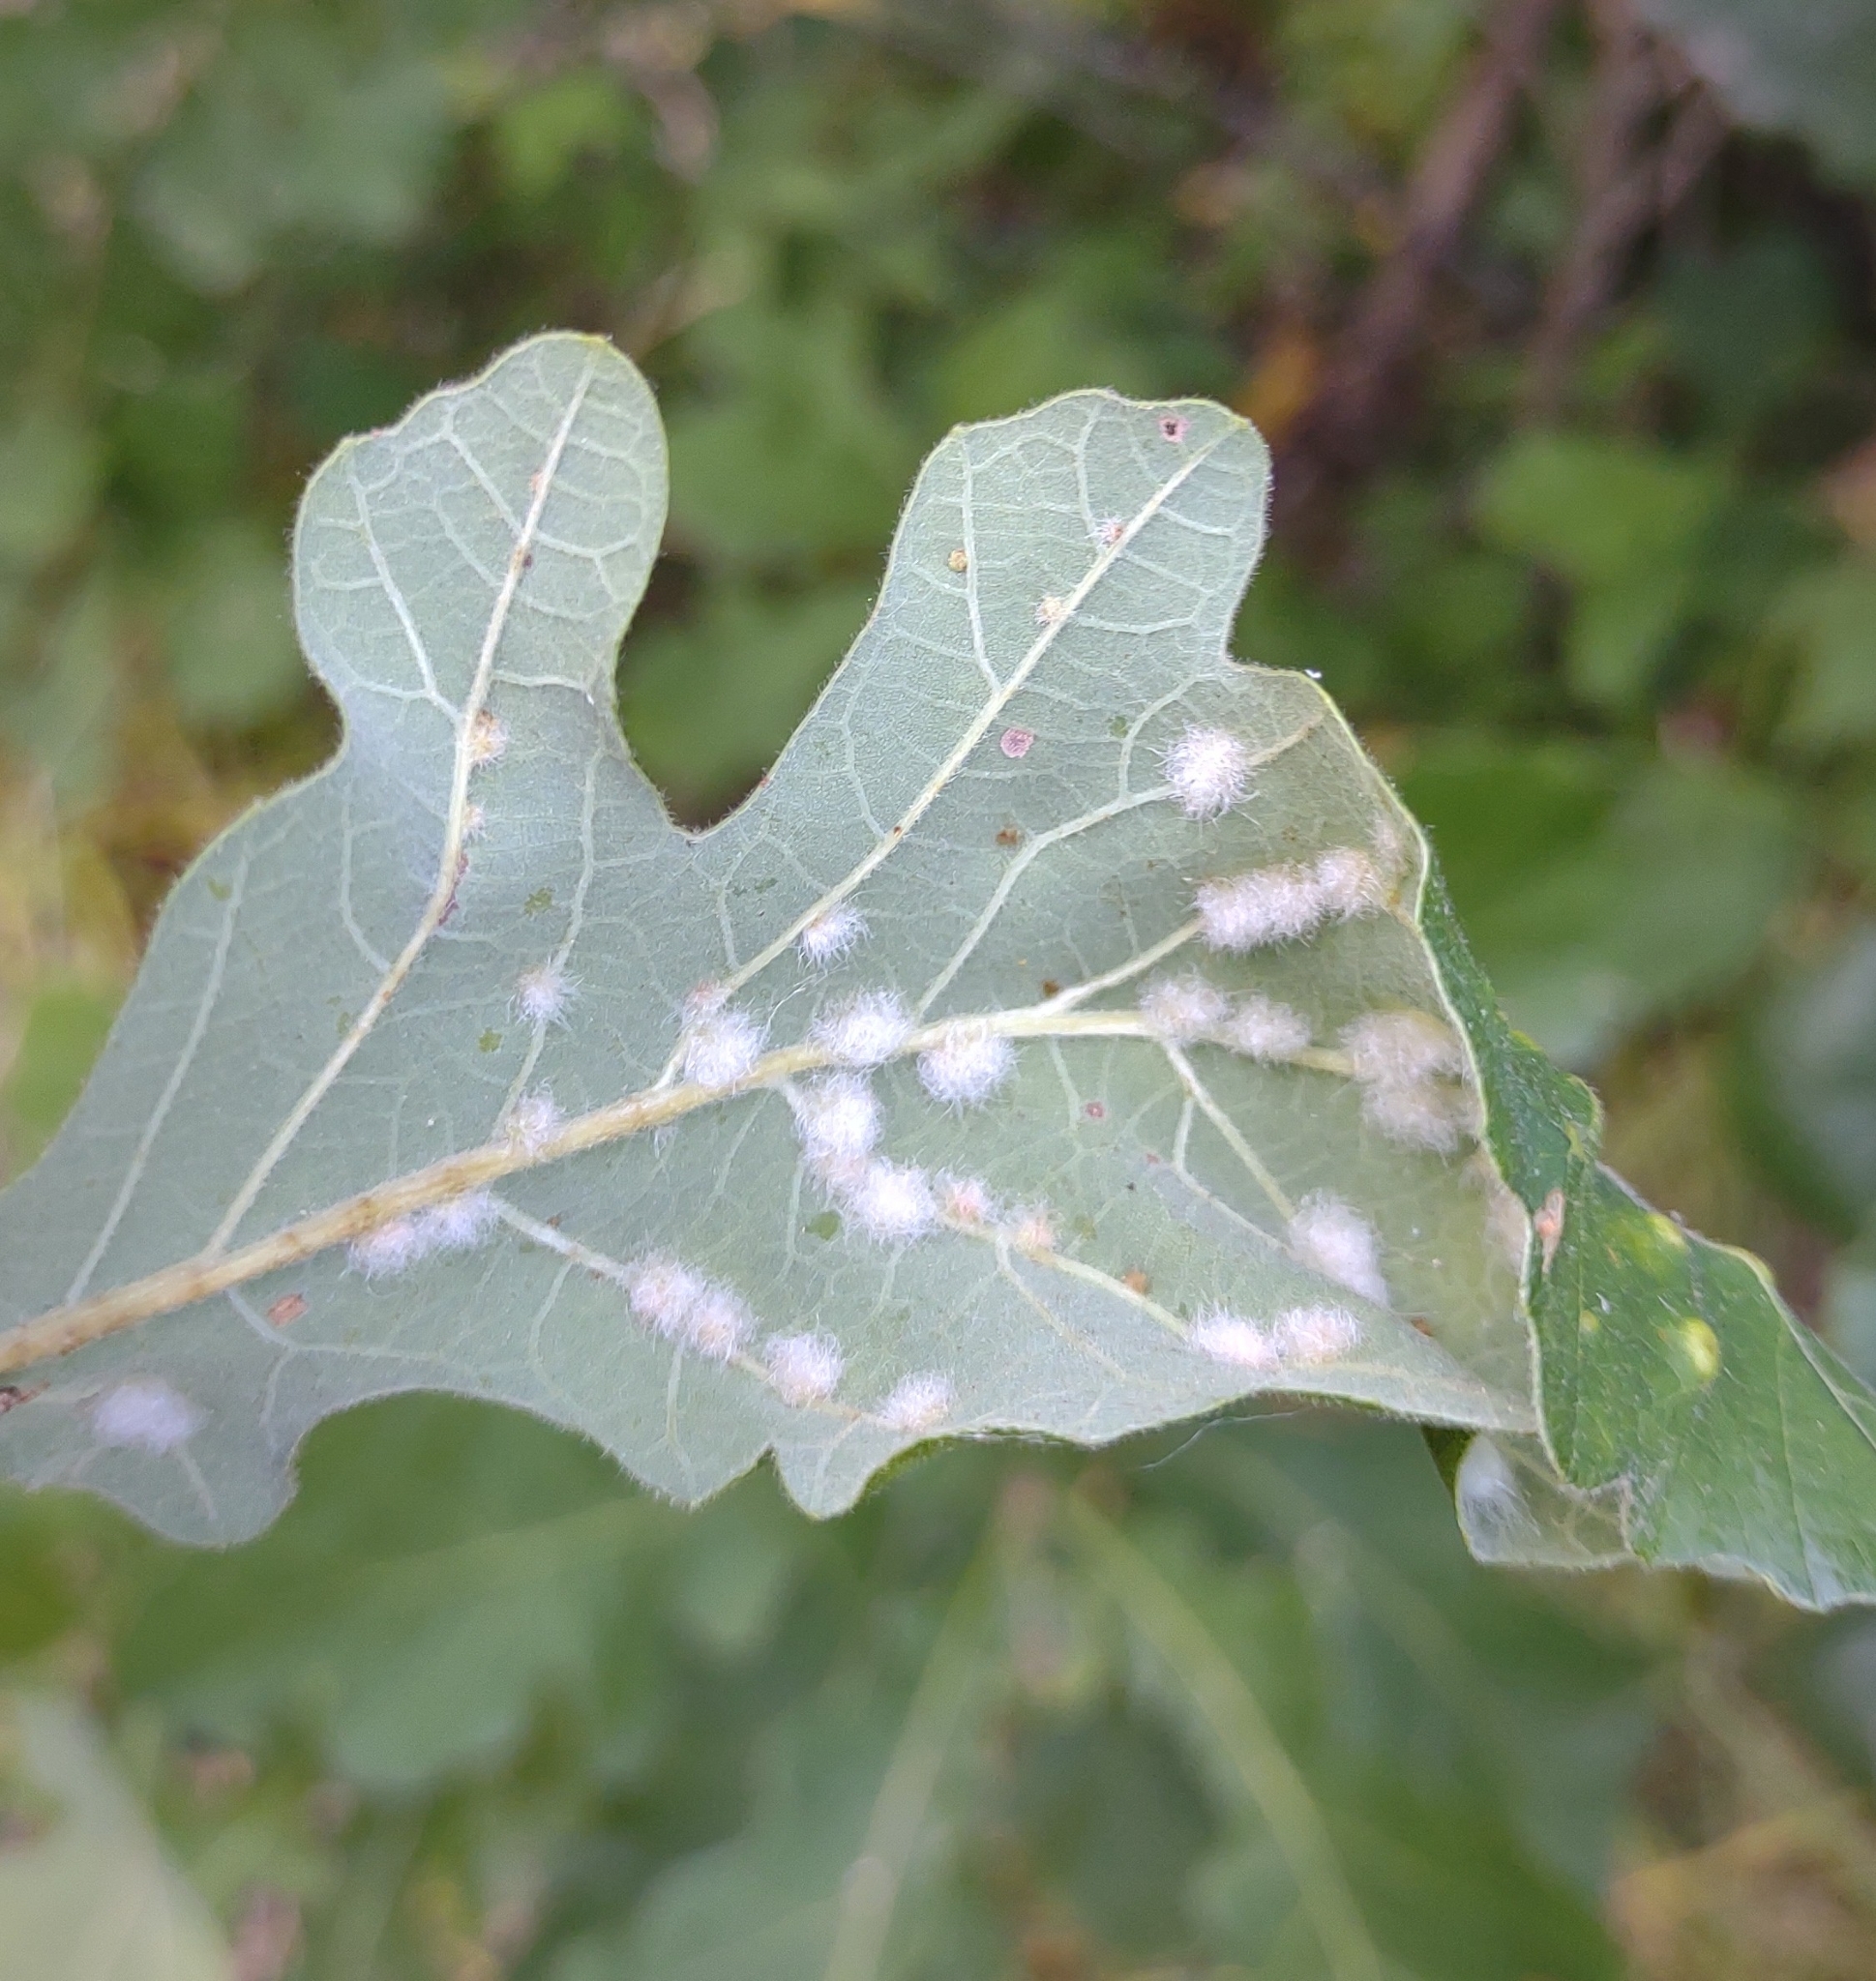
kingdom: Animalia
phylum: Arthropoda
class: Insecta
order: Hymenoptera
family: Cynipidae
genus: Neuroterus
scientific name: Neuroterus quercusverrucarum
